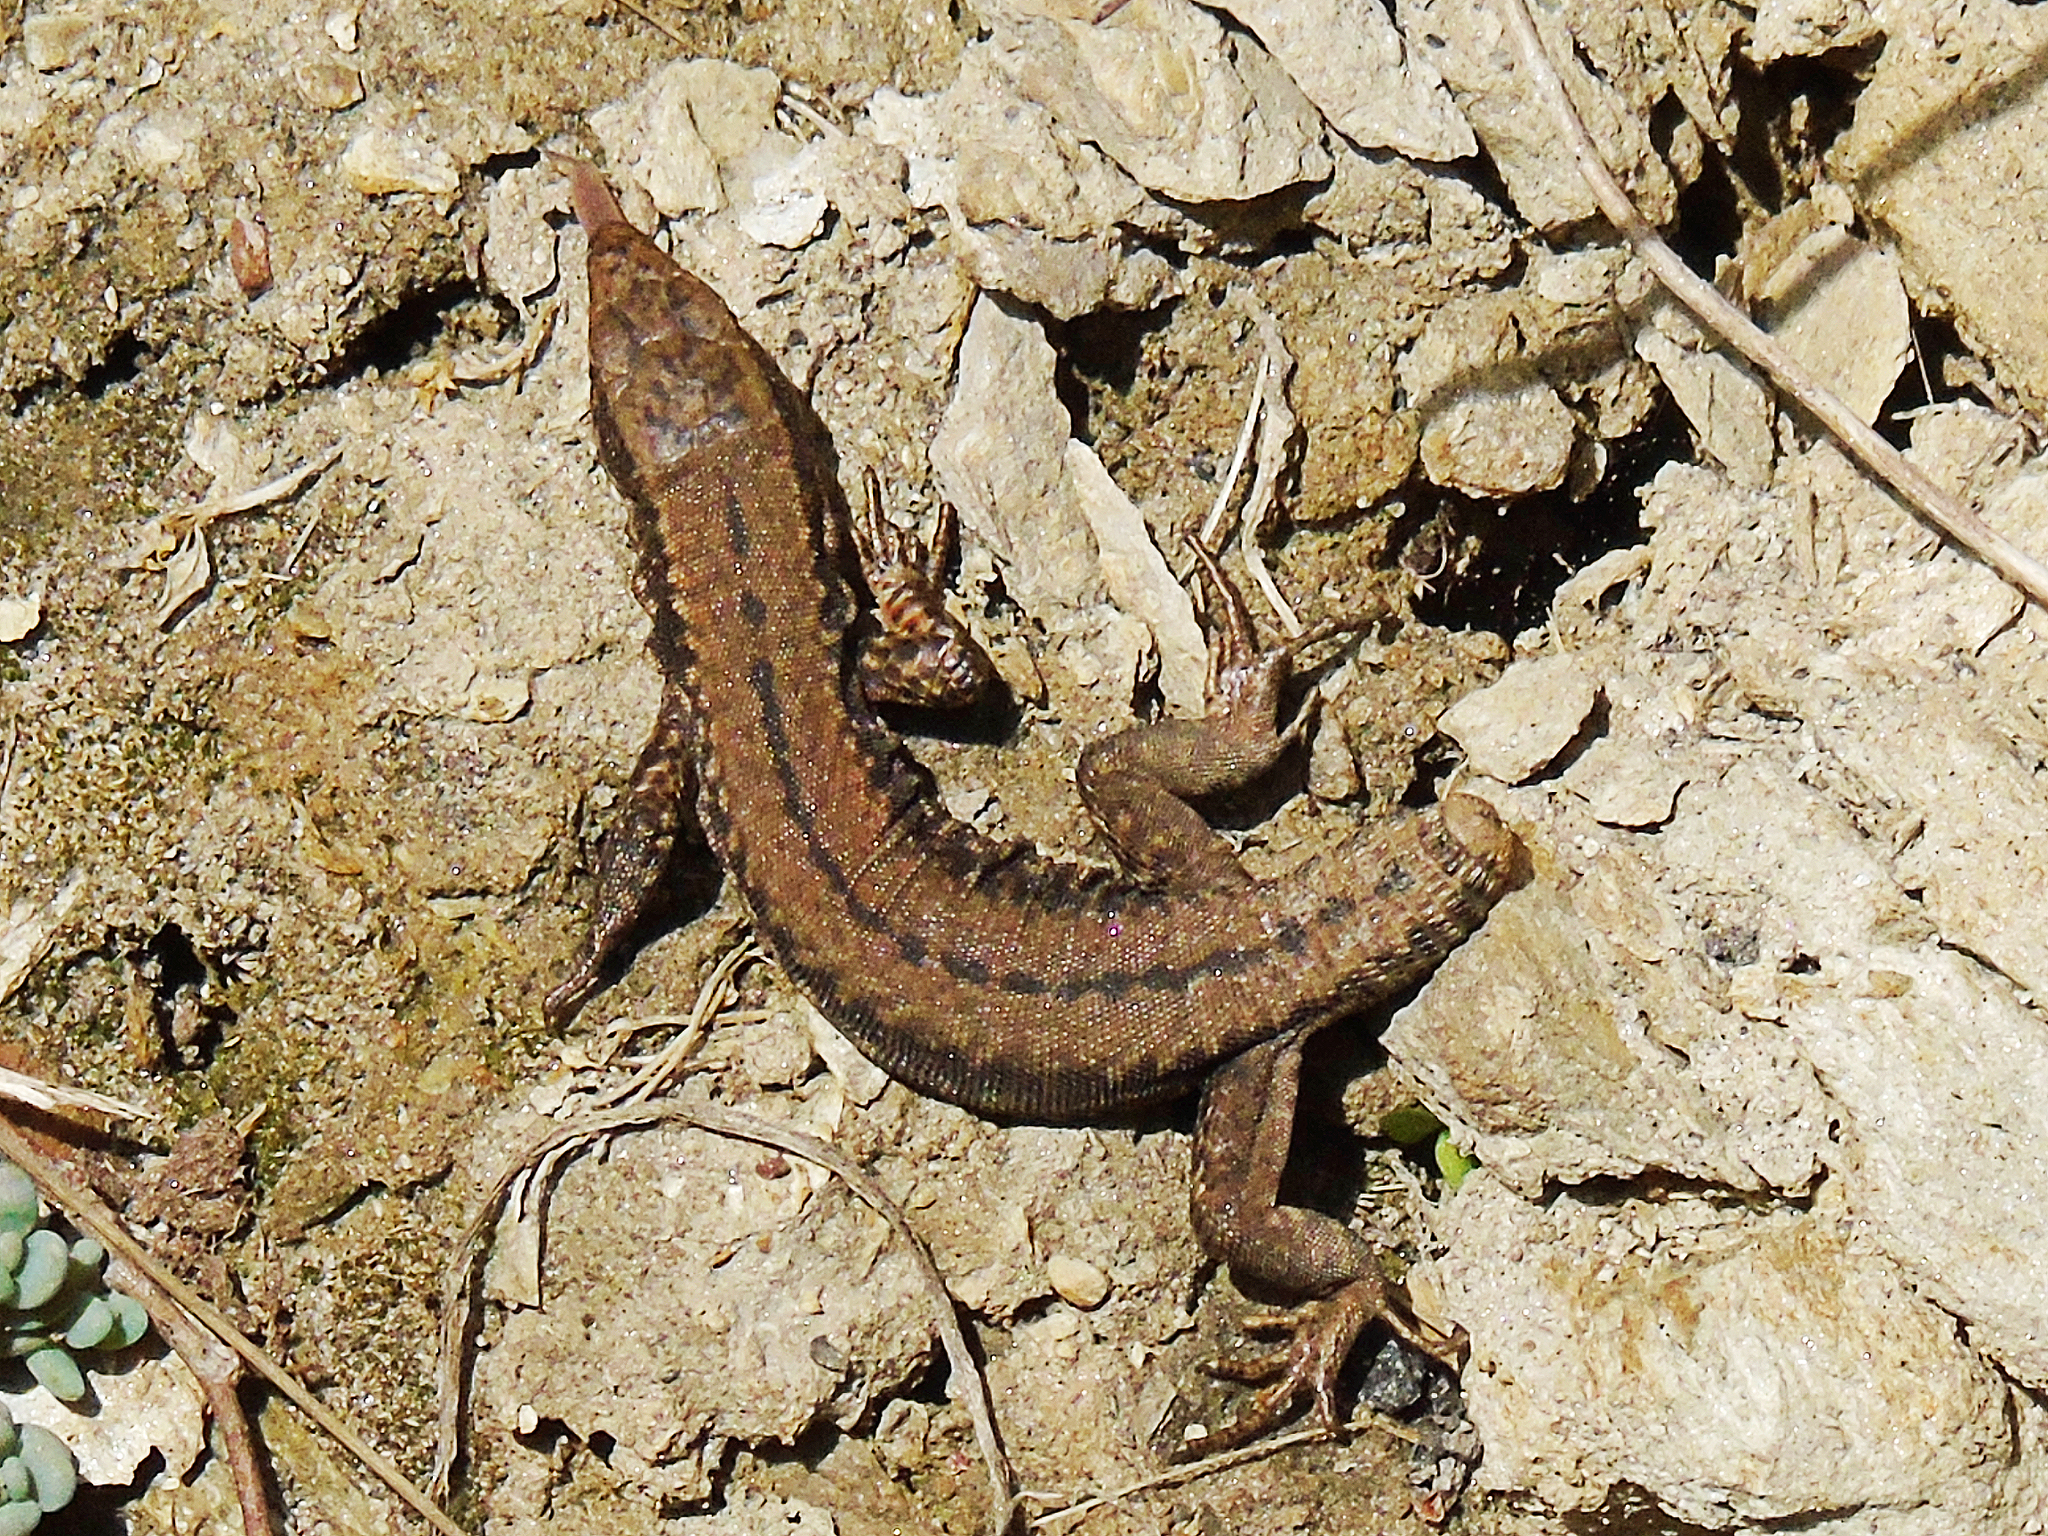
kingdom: Animalia
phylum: Chordata
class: Squamata
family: Lacertidae
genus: Podarcis
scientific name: Podarcis muralis
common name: Common wall lizard
